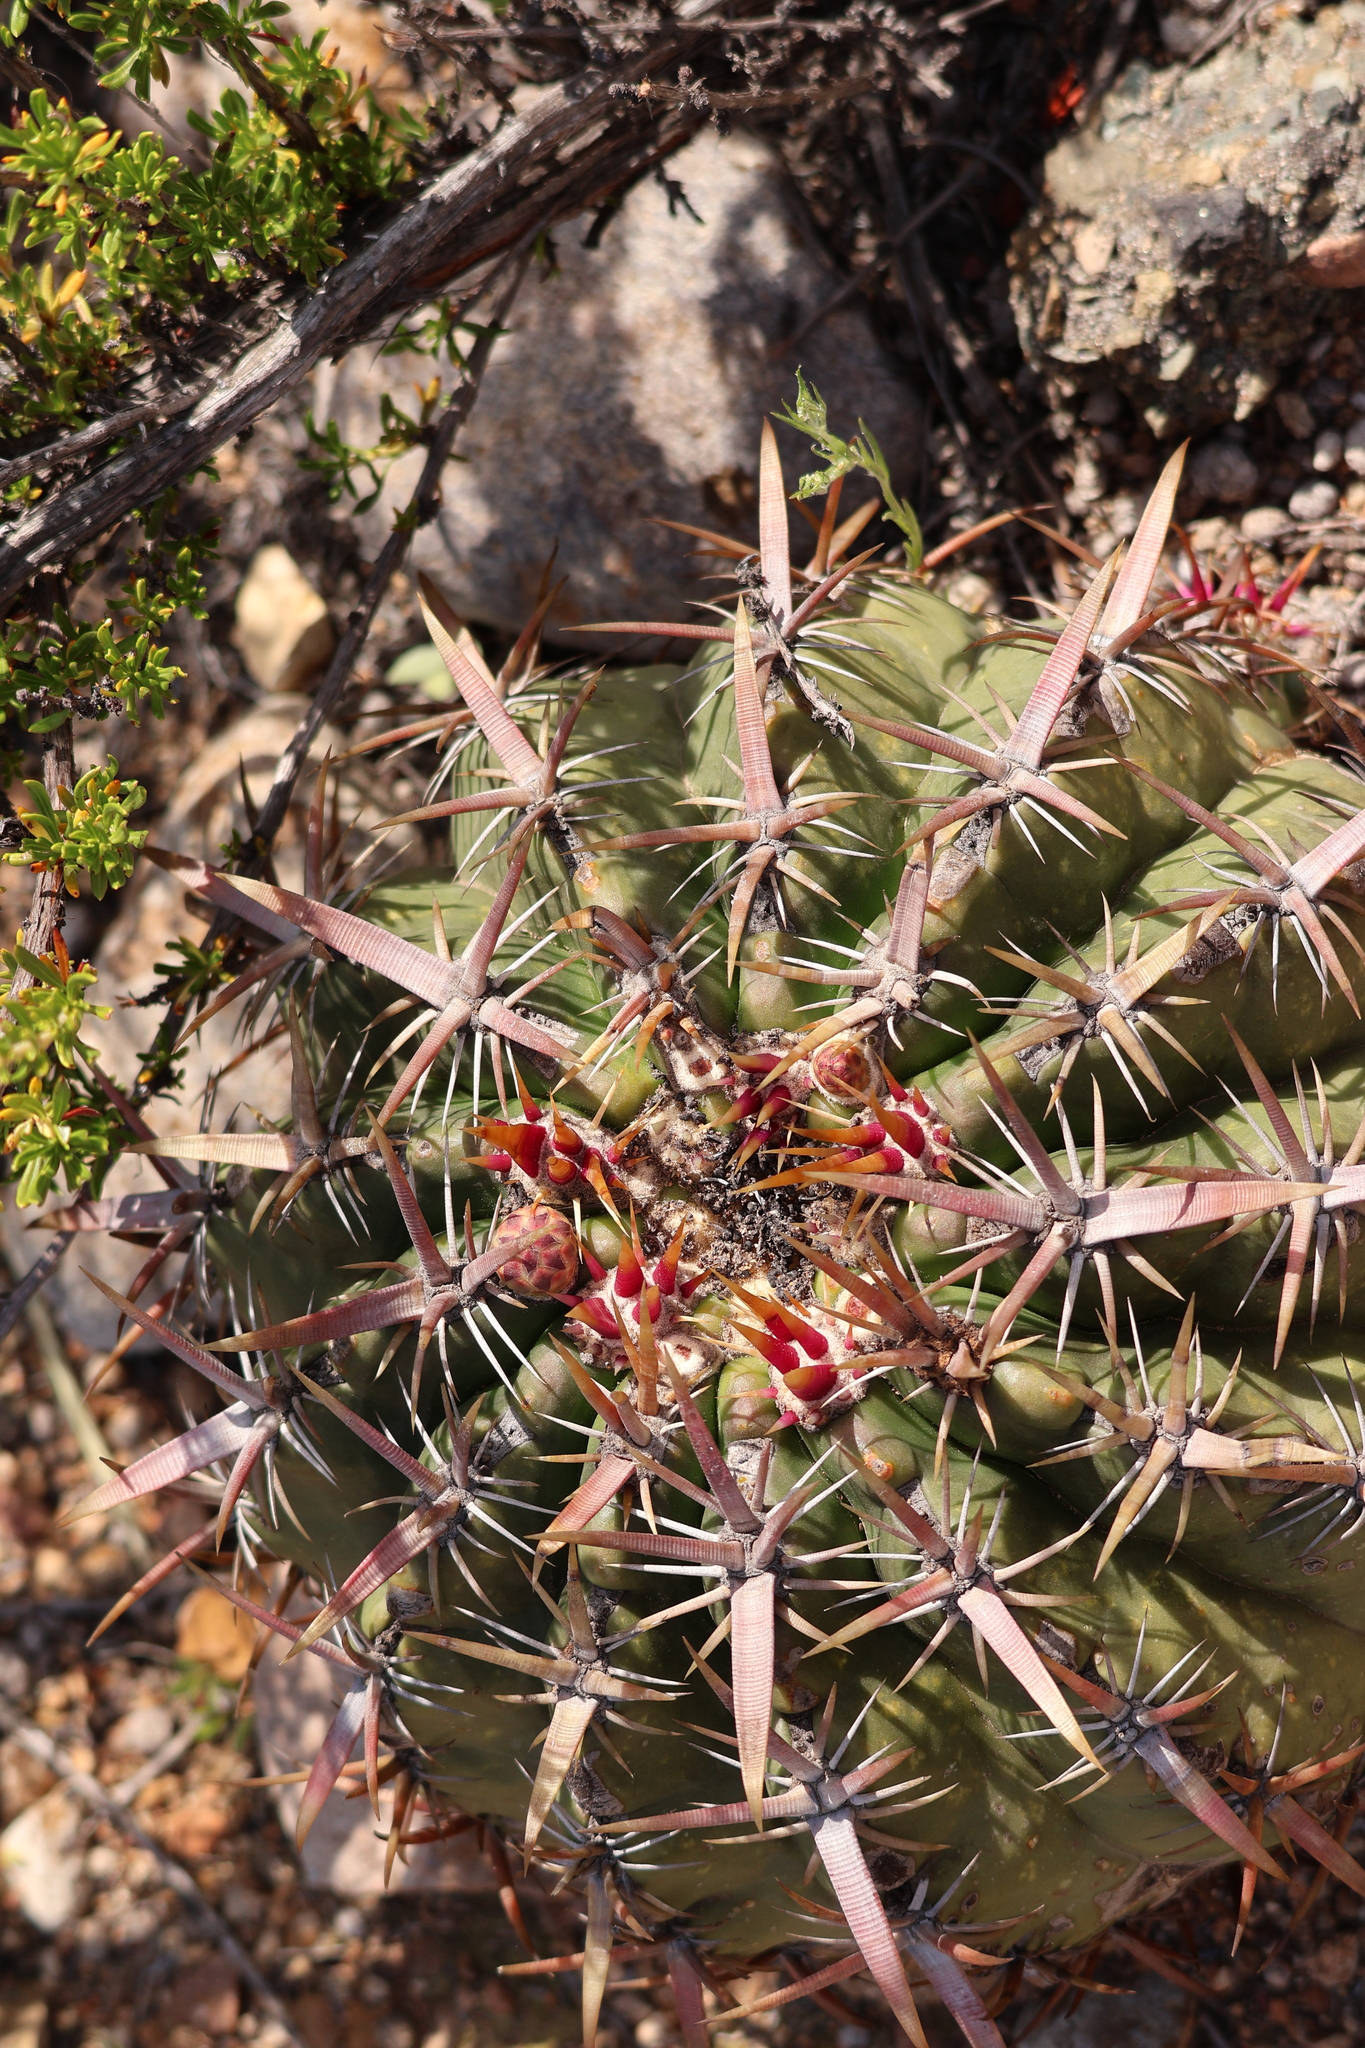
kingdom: Plantae
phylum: Tracheophyta
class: Magnoliopsida
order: Caryophyllales
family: Cactaceae
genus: Ferocactus
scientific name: Ferocactus viridescens
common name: San diego barrel cactus
